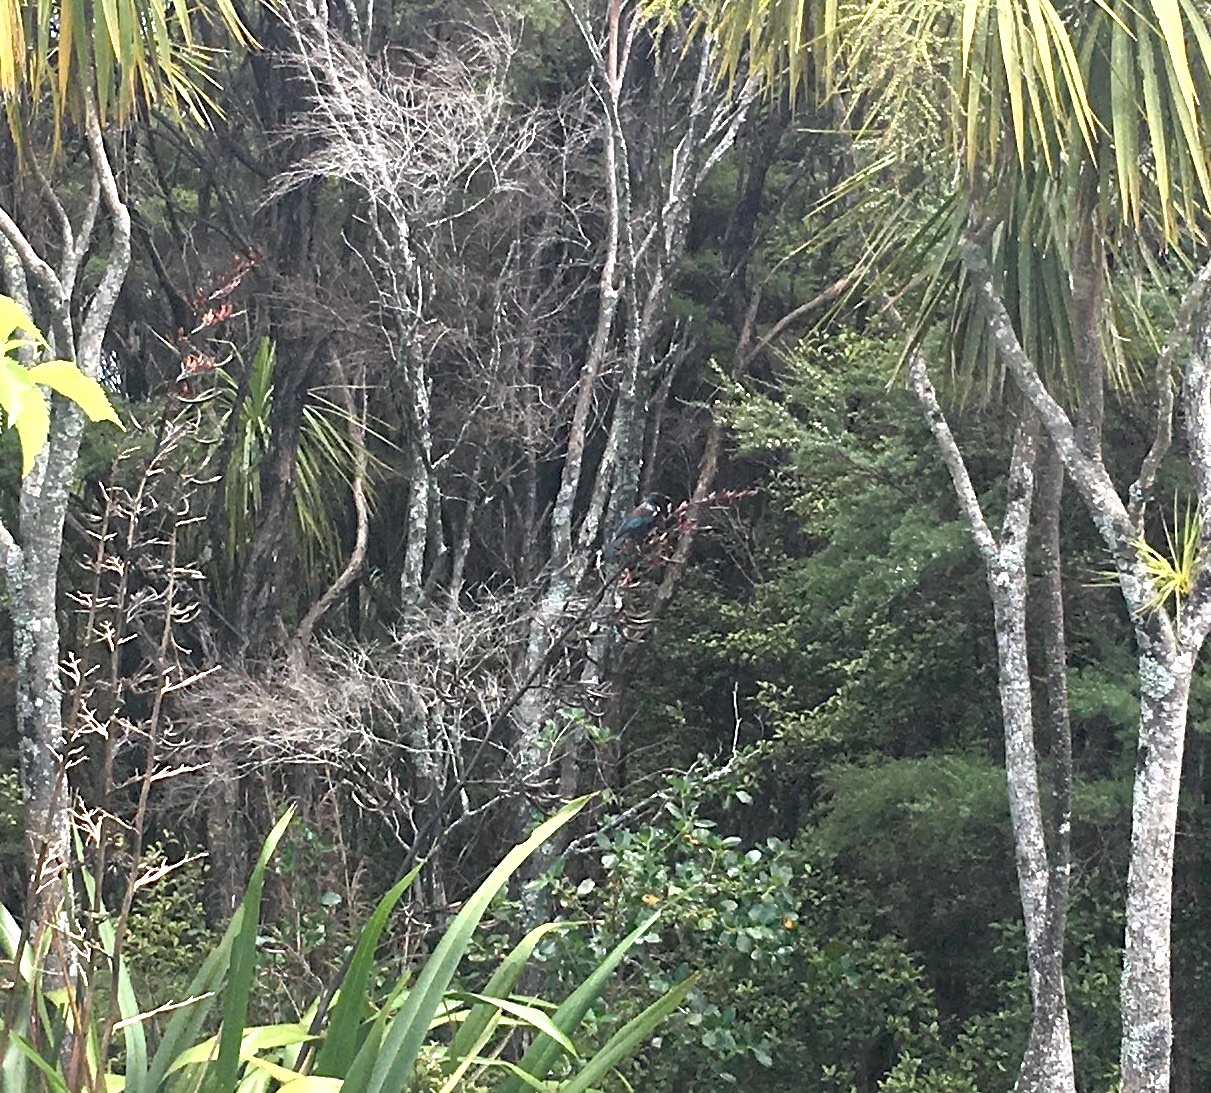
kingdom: Animalia
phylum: Chordata
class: Aves
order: Passeriformes
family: Meliphagidae
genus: Prosthemadera
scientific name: Prosthemadera novaeseelandiae
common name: Tui
